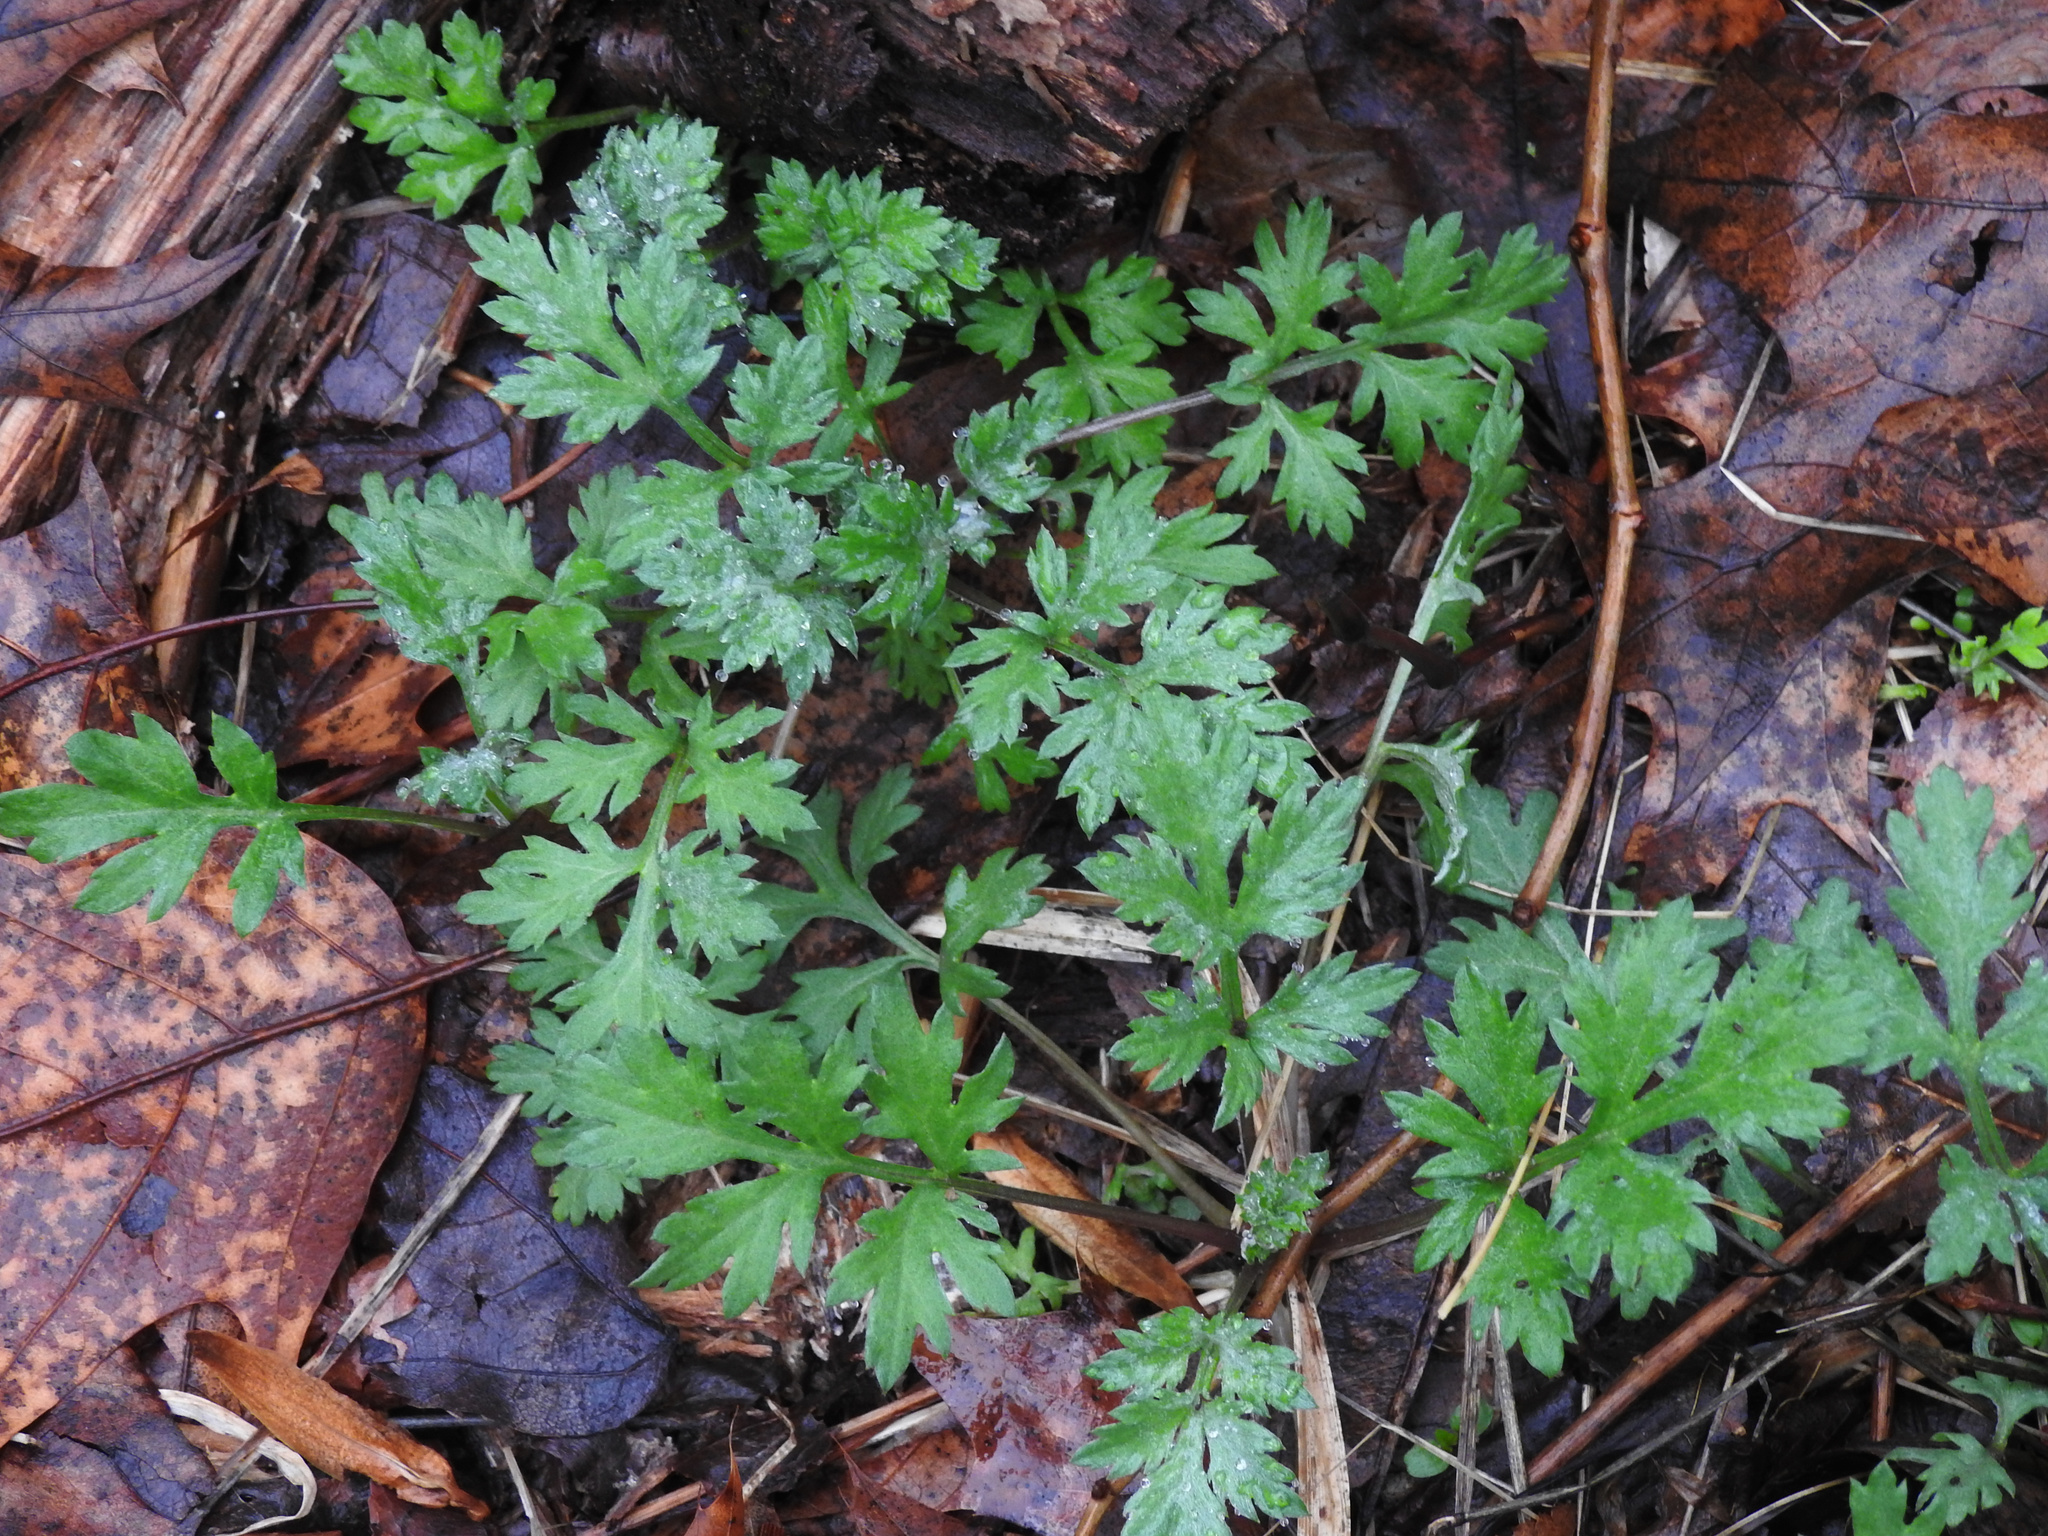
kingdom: Plantae
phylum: Tracheophyta
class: Magnoliopsida
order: Asterales
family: Asteraceae
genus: Artemisia
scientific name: Artemisia vulgaris
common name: Mugwort
